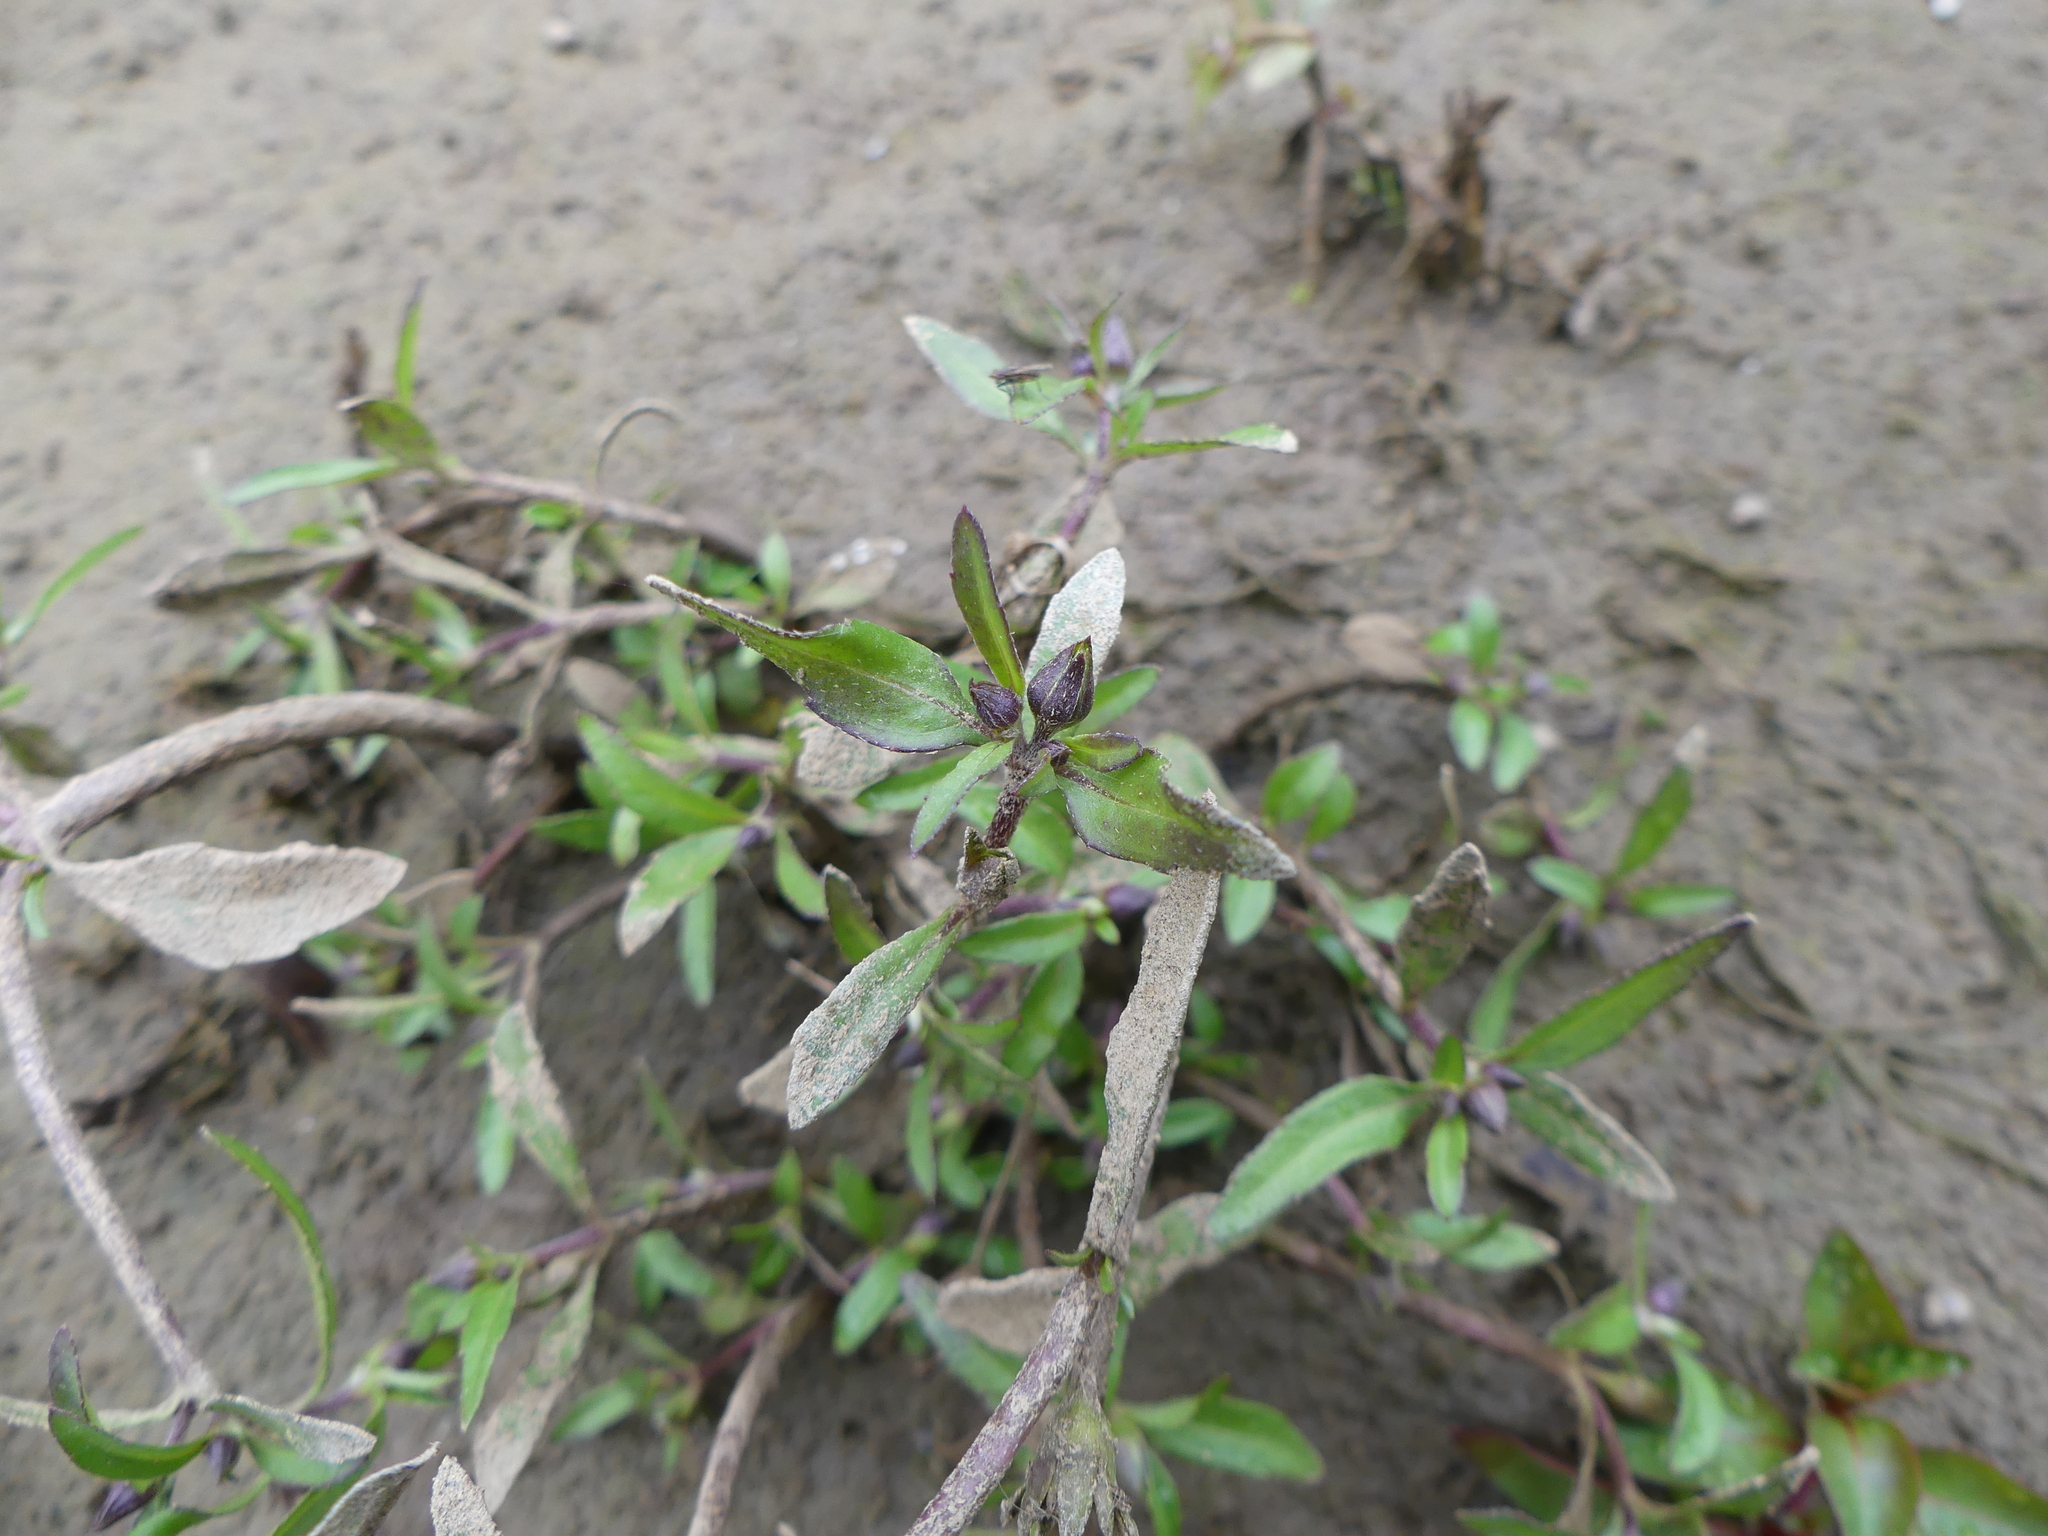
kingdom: Plantae
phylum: Tracheophyta
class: Magnoliopsida
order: Asterales
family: Asteraceae
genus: Eclipta
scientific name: Eclipta prostrata
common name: False daisy
